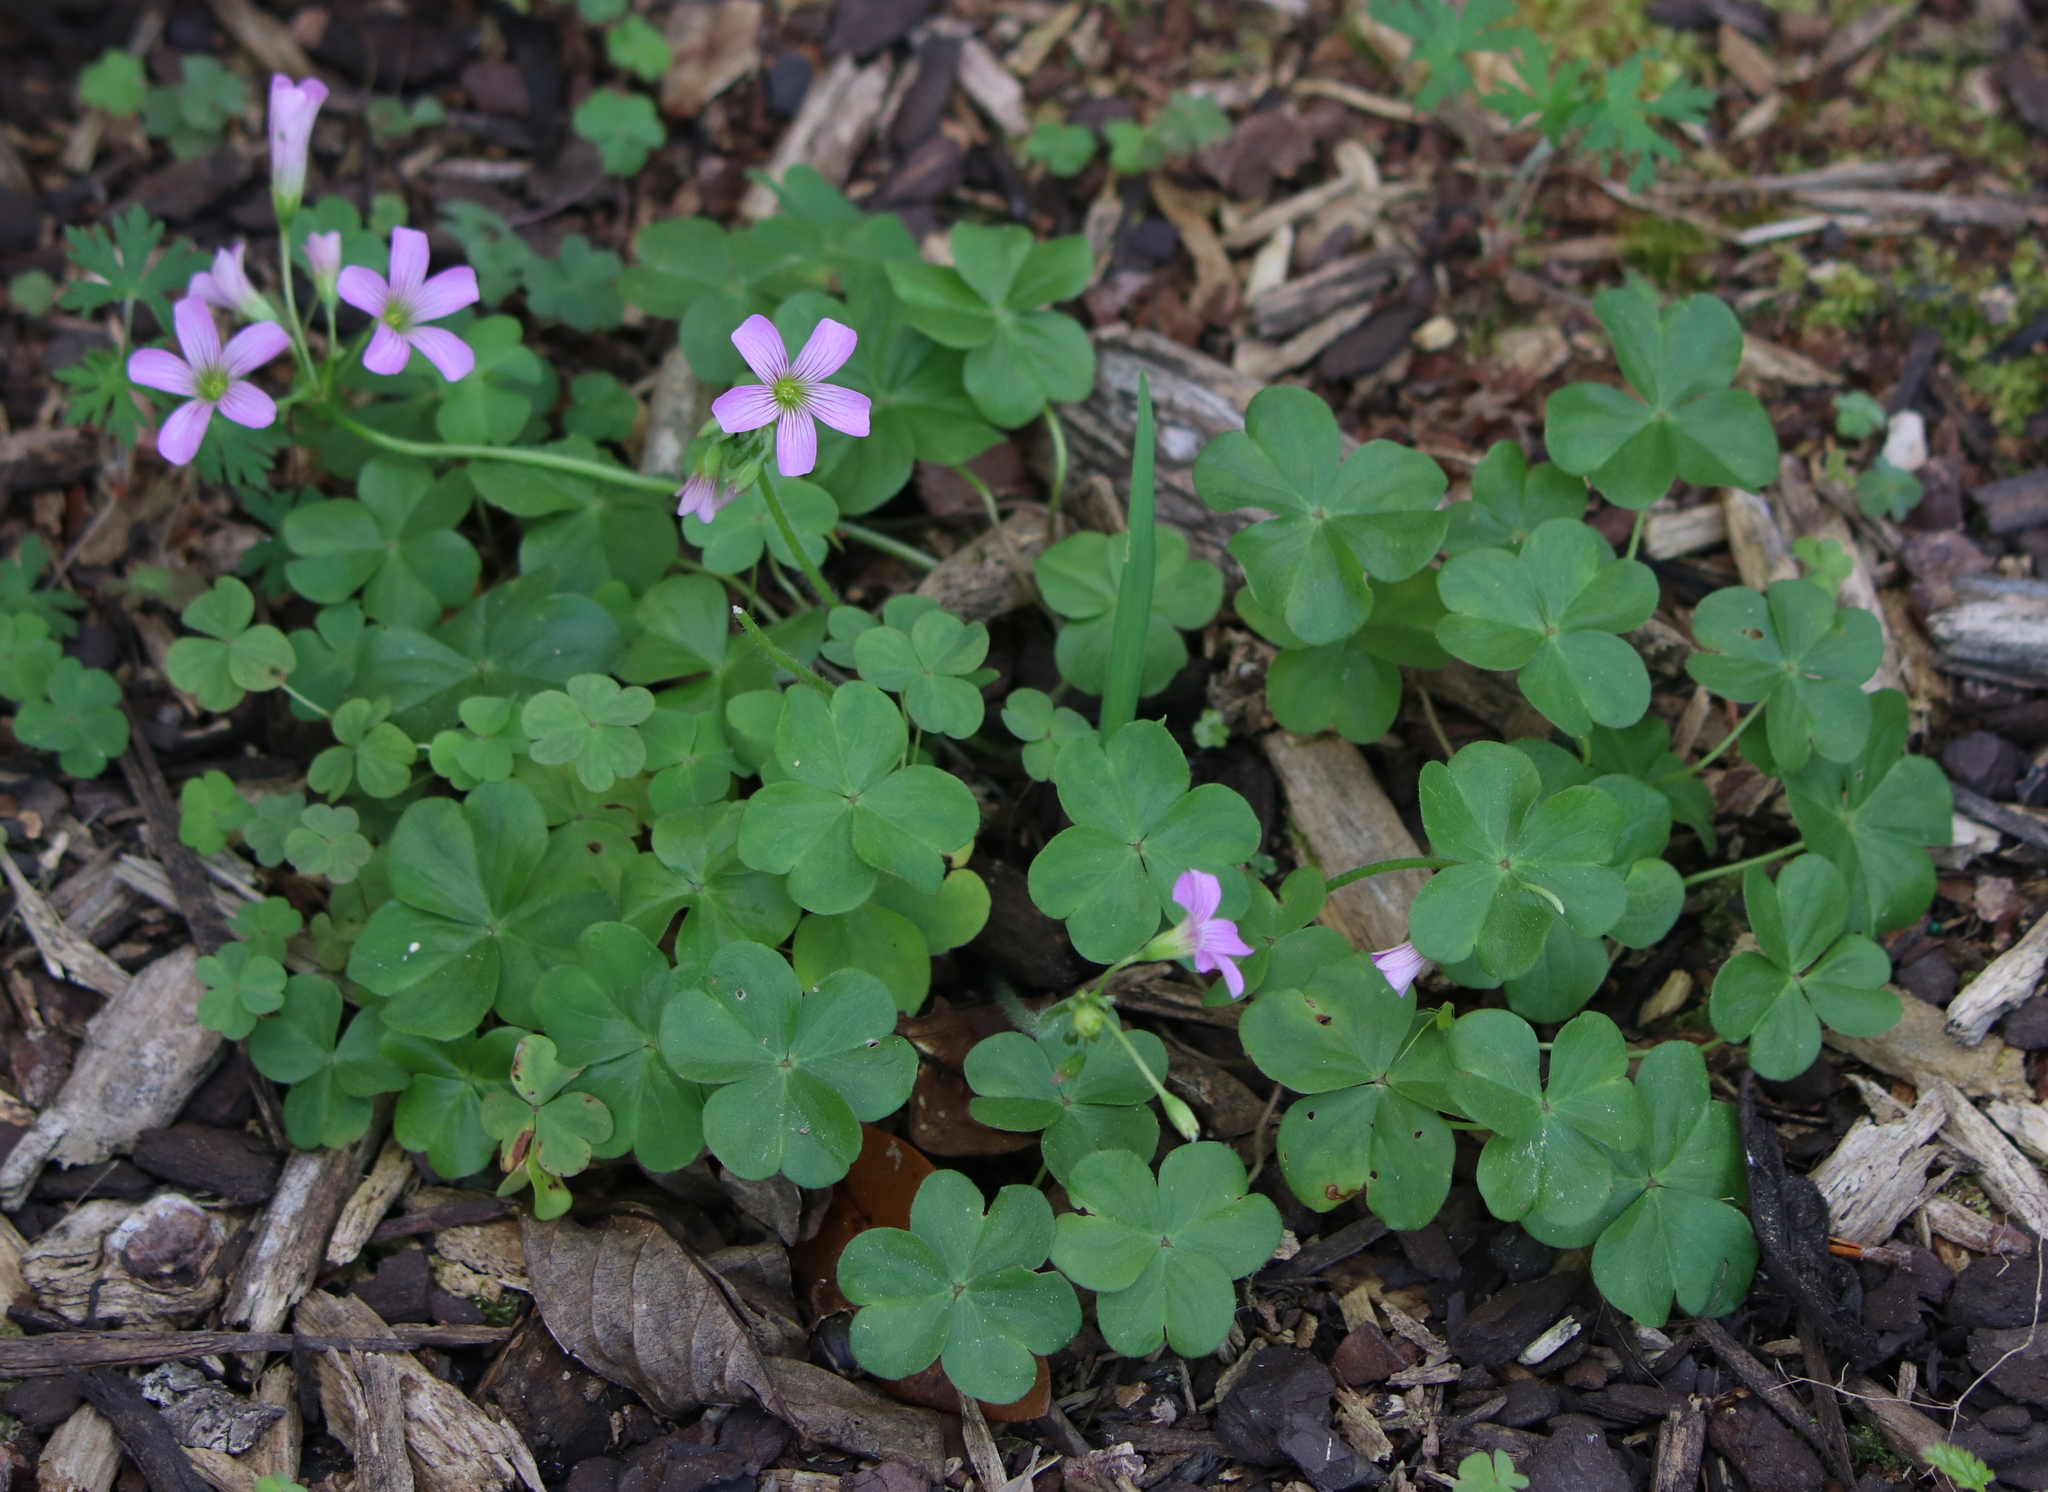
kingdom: Plantae
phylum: Tracheophyta
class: Magnoliopsida
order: Oxalidales
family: Oxalidaceae
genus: Oxalis
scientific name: Oxalis debilis
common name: Large-flowered pink-sorrel
